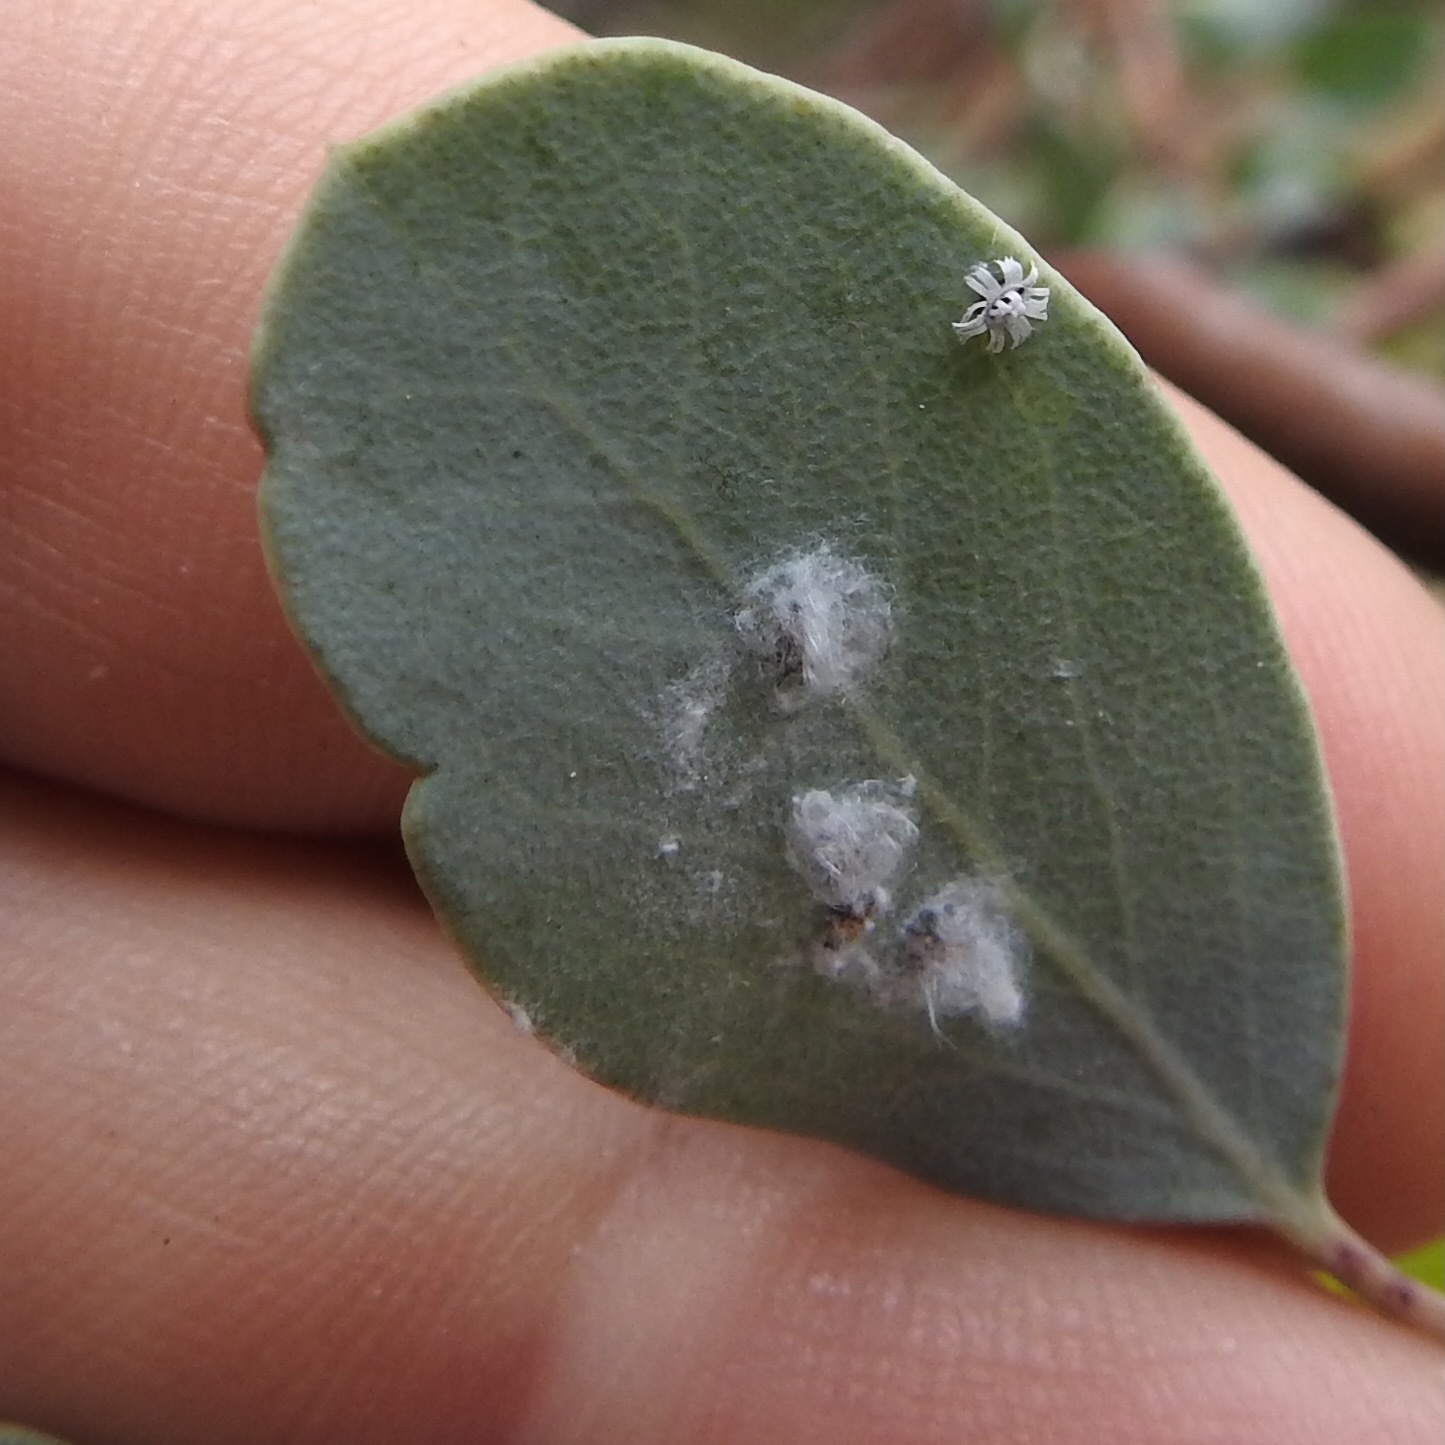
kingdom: Plantae
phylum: Tracheophyta
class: Magnoliopsida
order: Ericales
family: Ericaceae
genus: Arctostaphylos
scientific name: Arctostaphylos glauca
